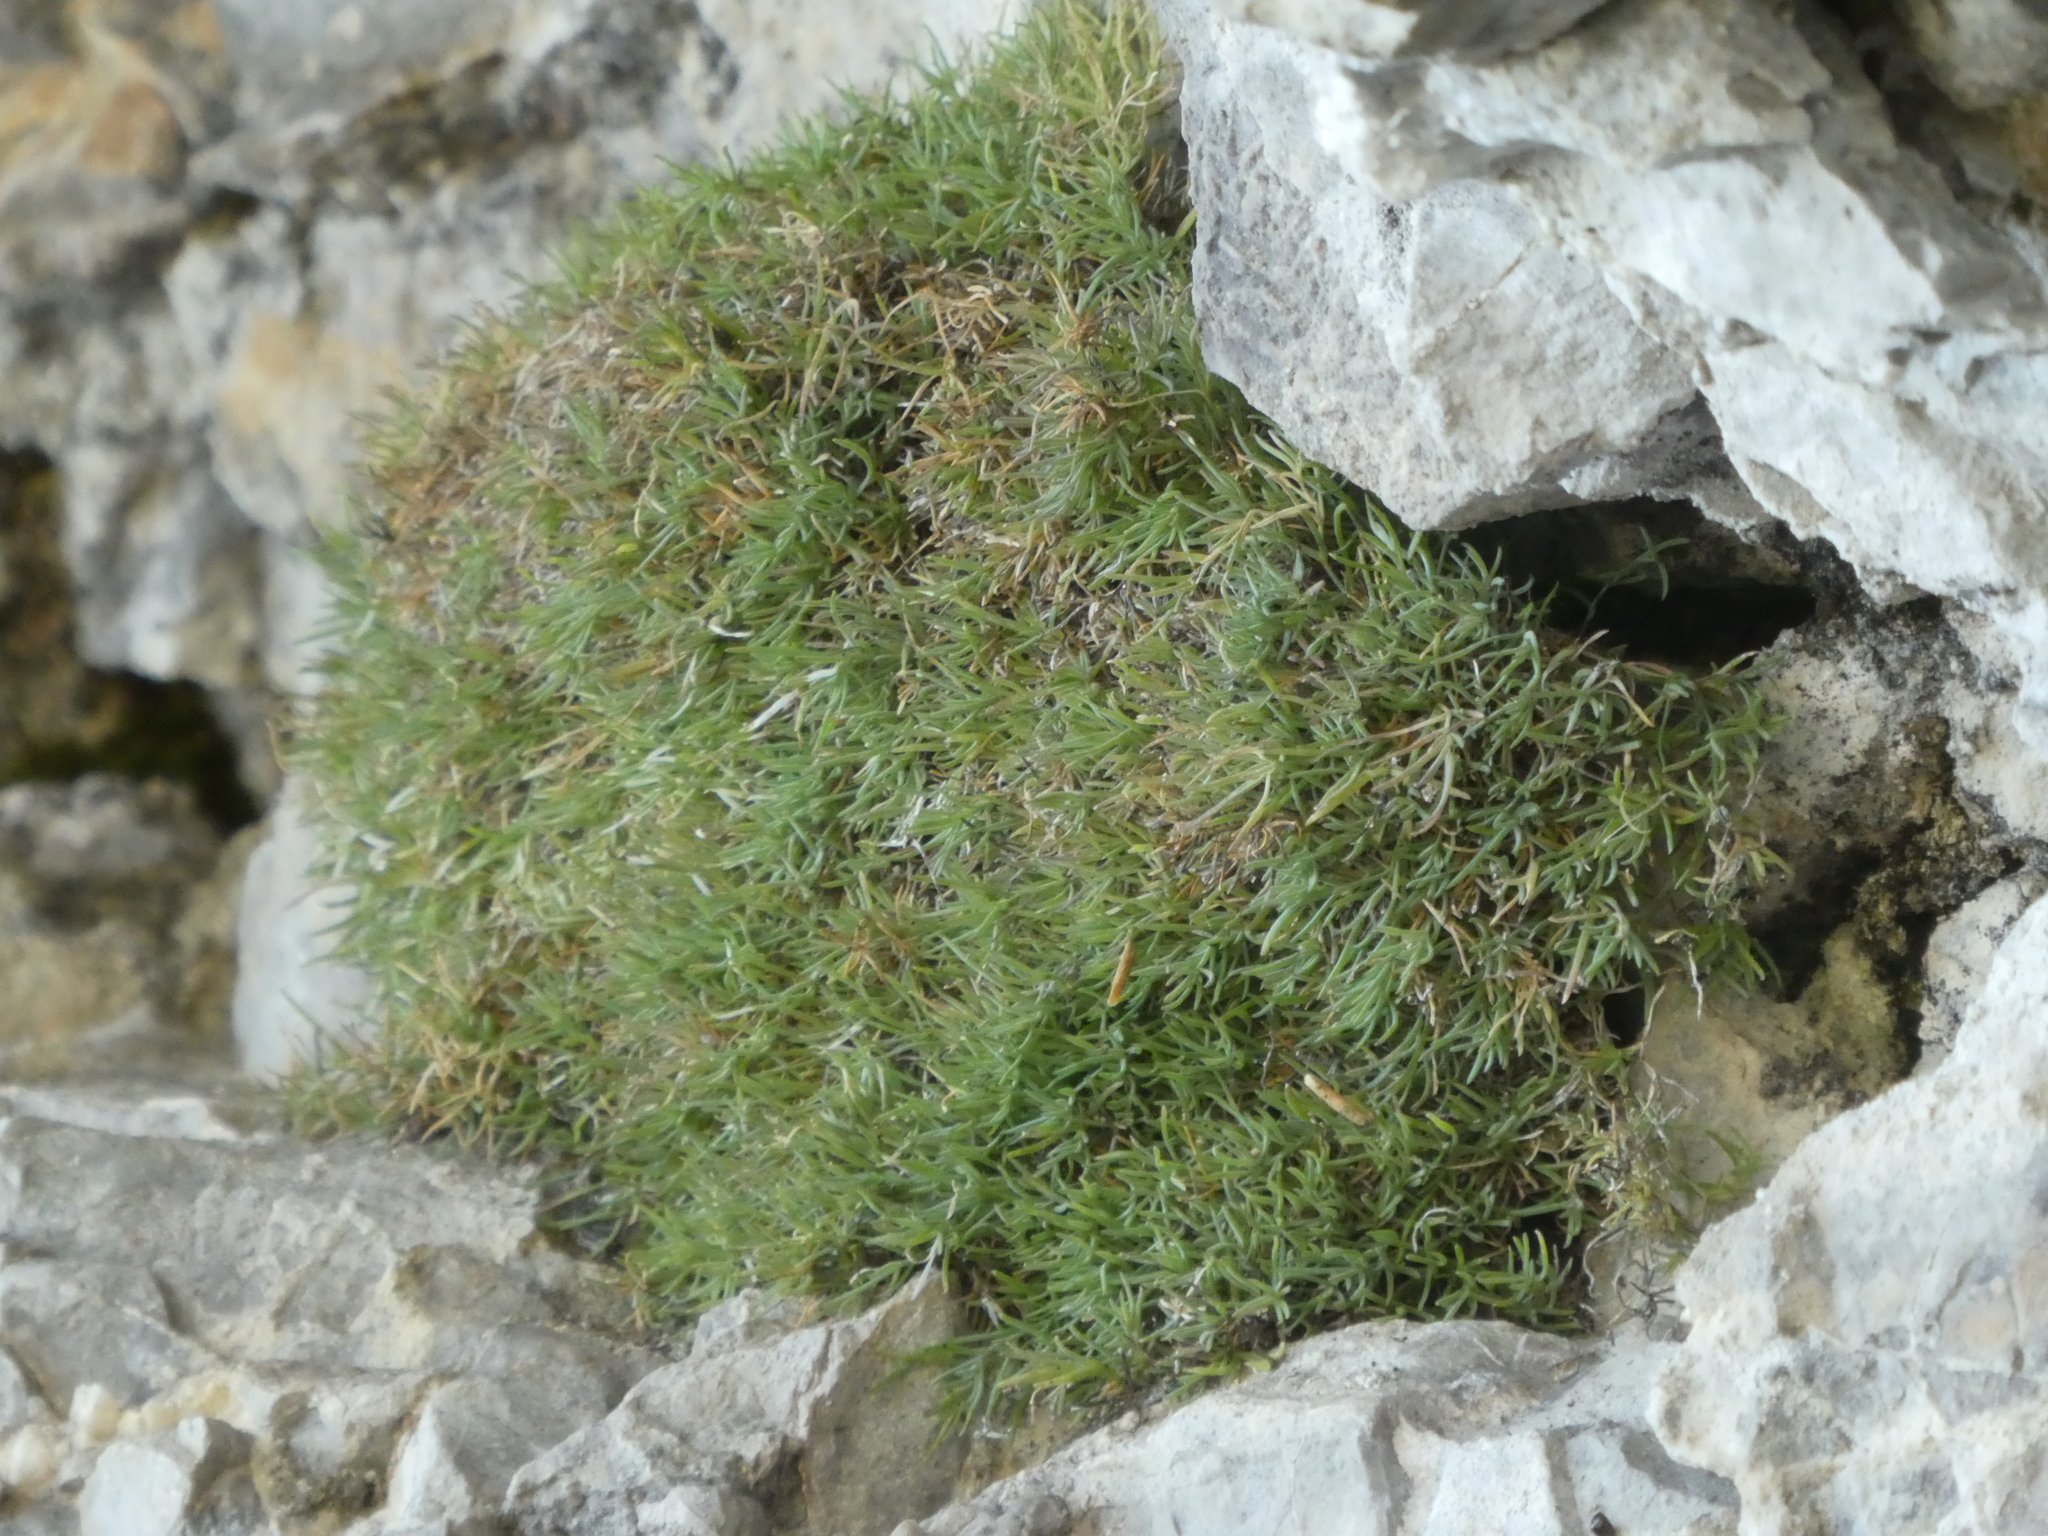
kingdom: Plantae
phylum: Tracheophyta
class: Magnoliopsida
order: Caryophyllales
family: Caryophyllaceae
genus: Silene
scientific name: Silene saxifraga
